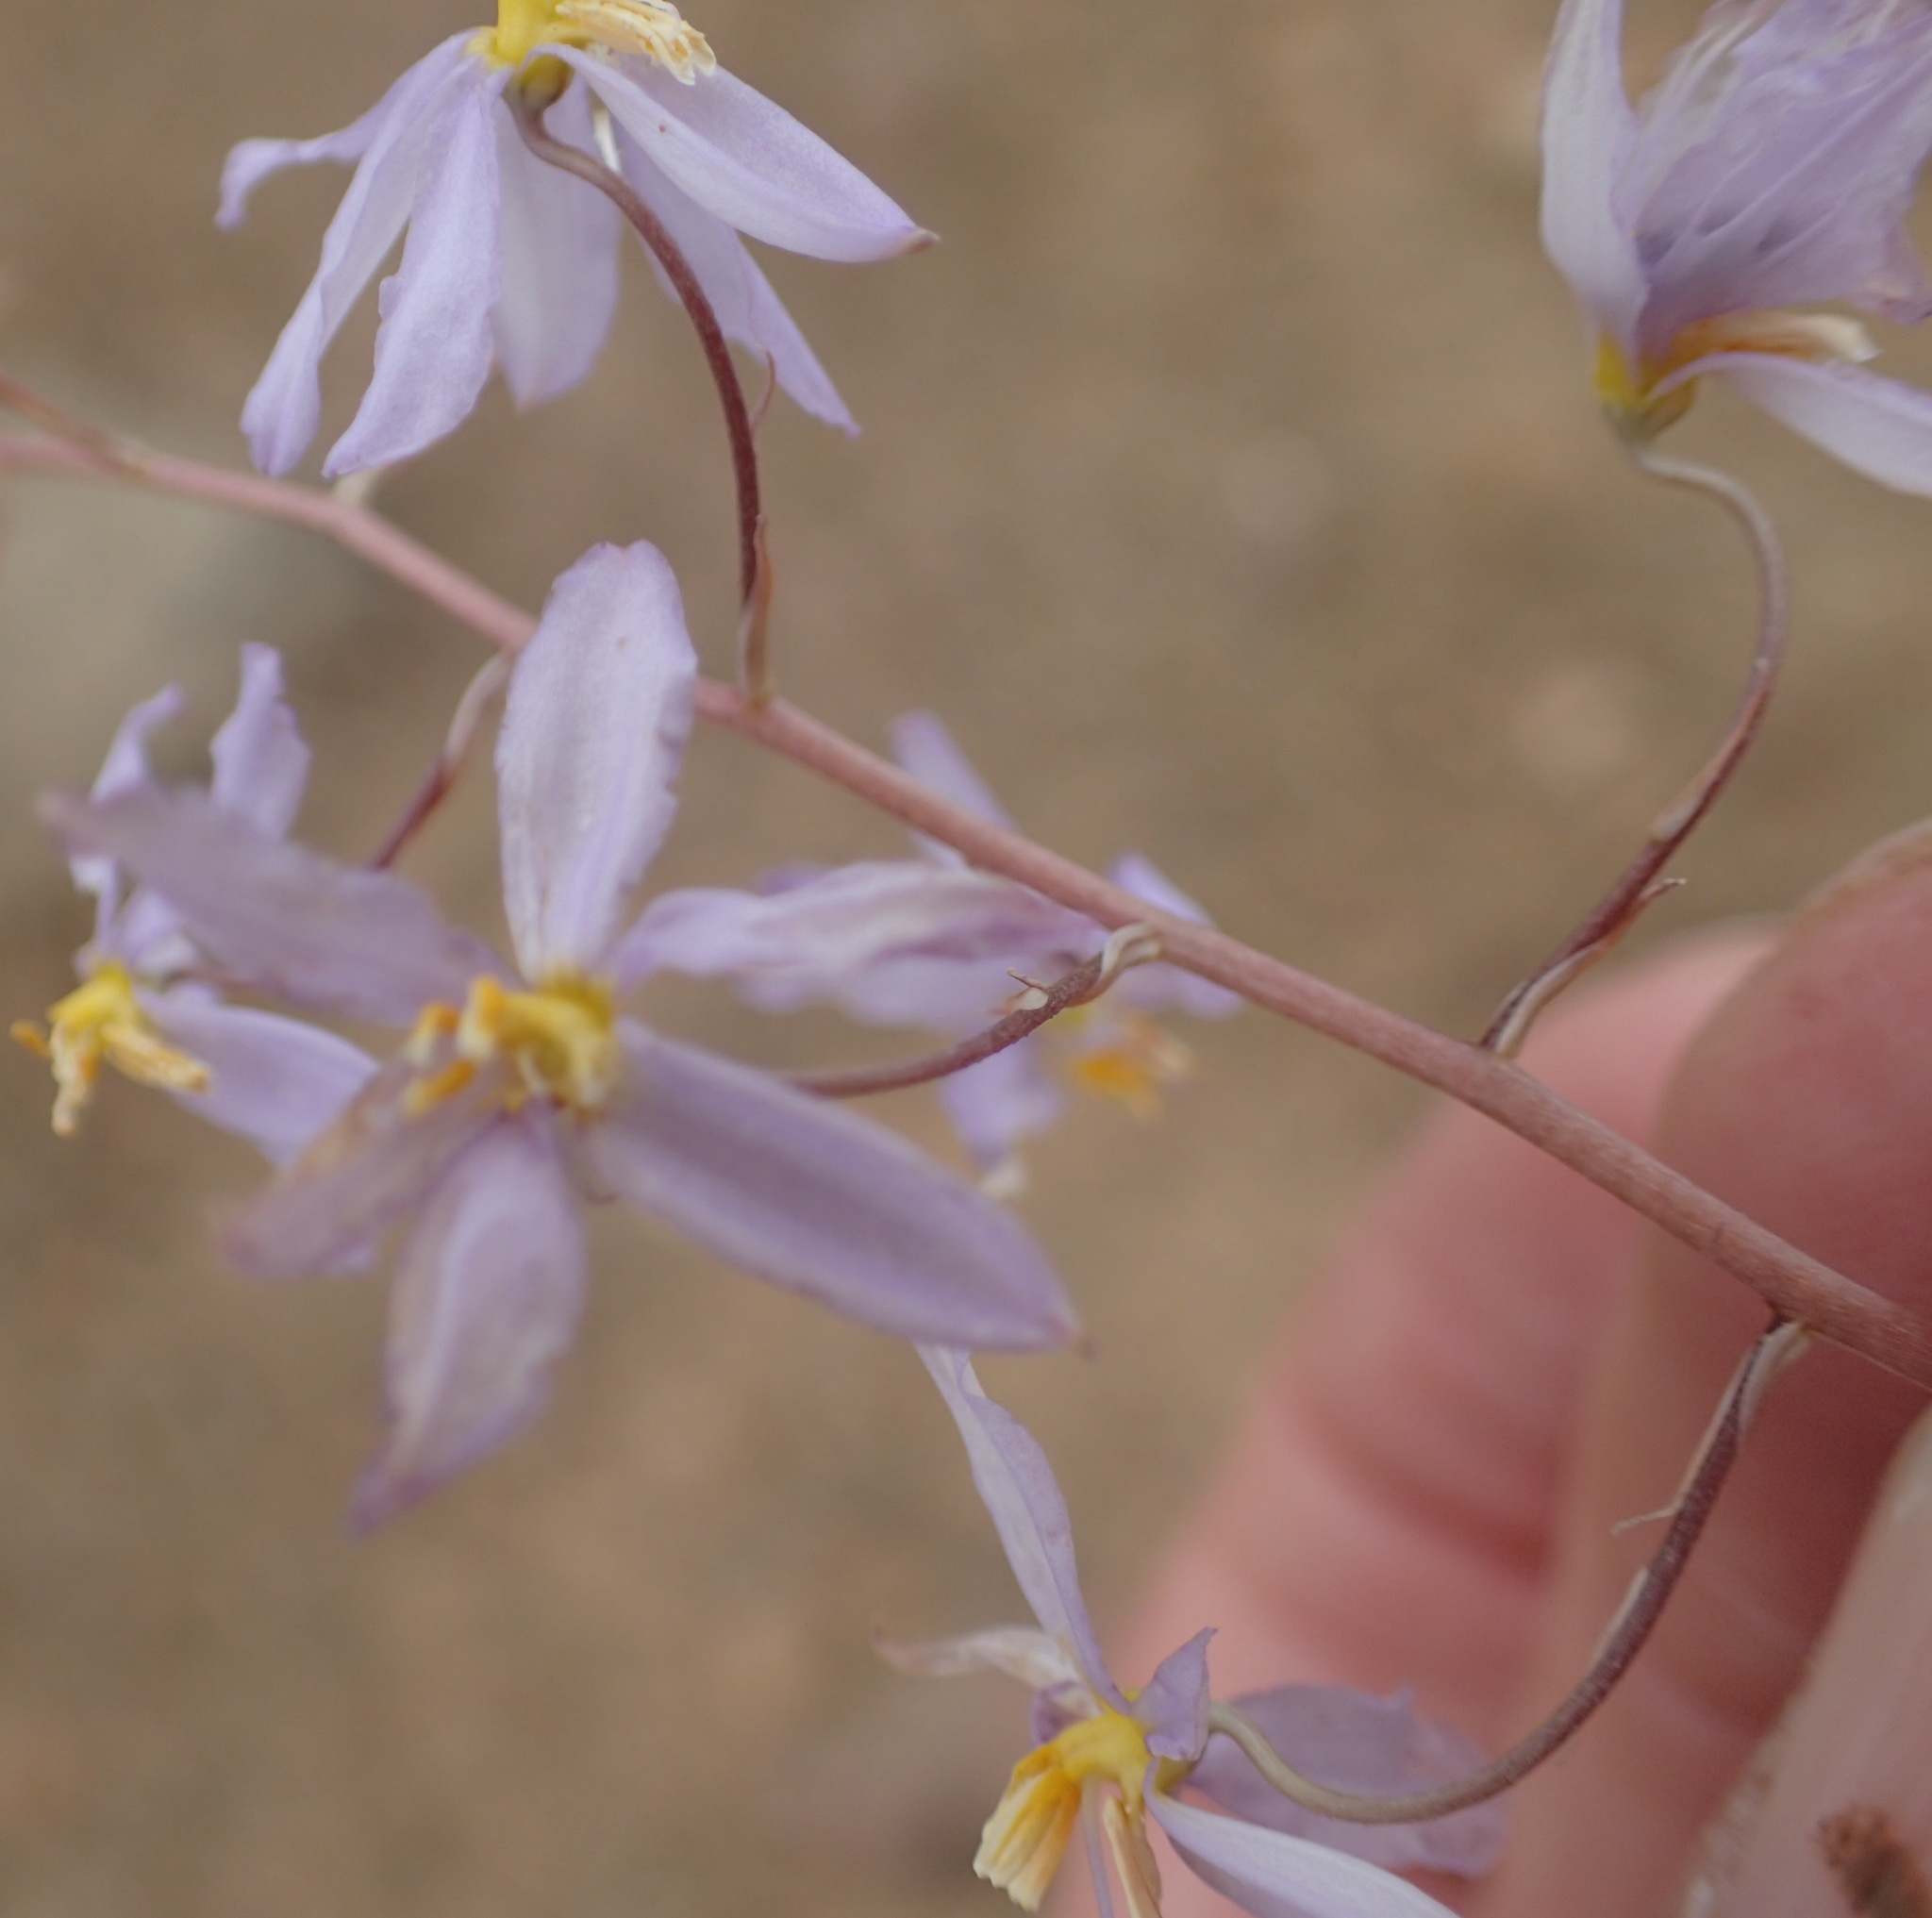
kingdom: Plantae
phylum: Tracheophyta
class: Liliopsida
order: Asparagales
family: Tecophilaeaceae
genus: Cyanella
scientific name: Cyanella pentheri
